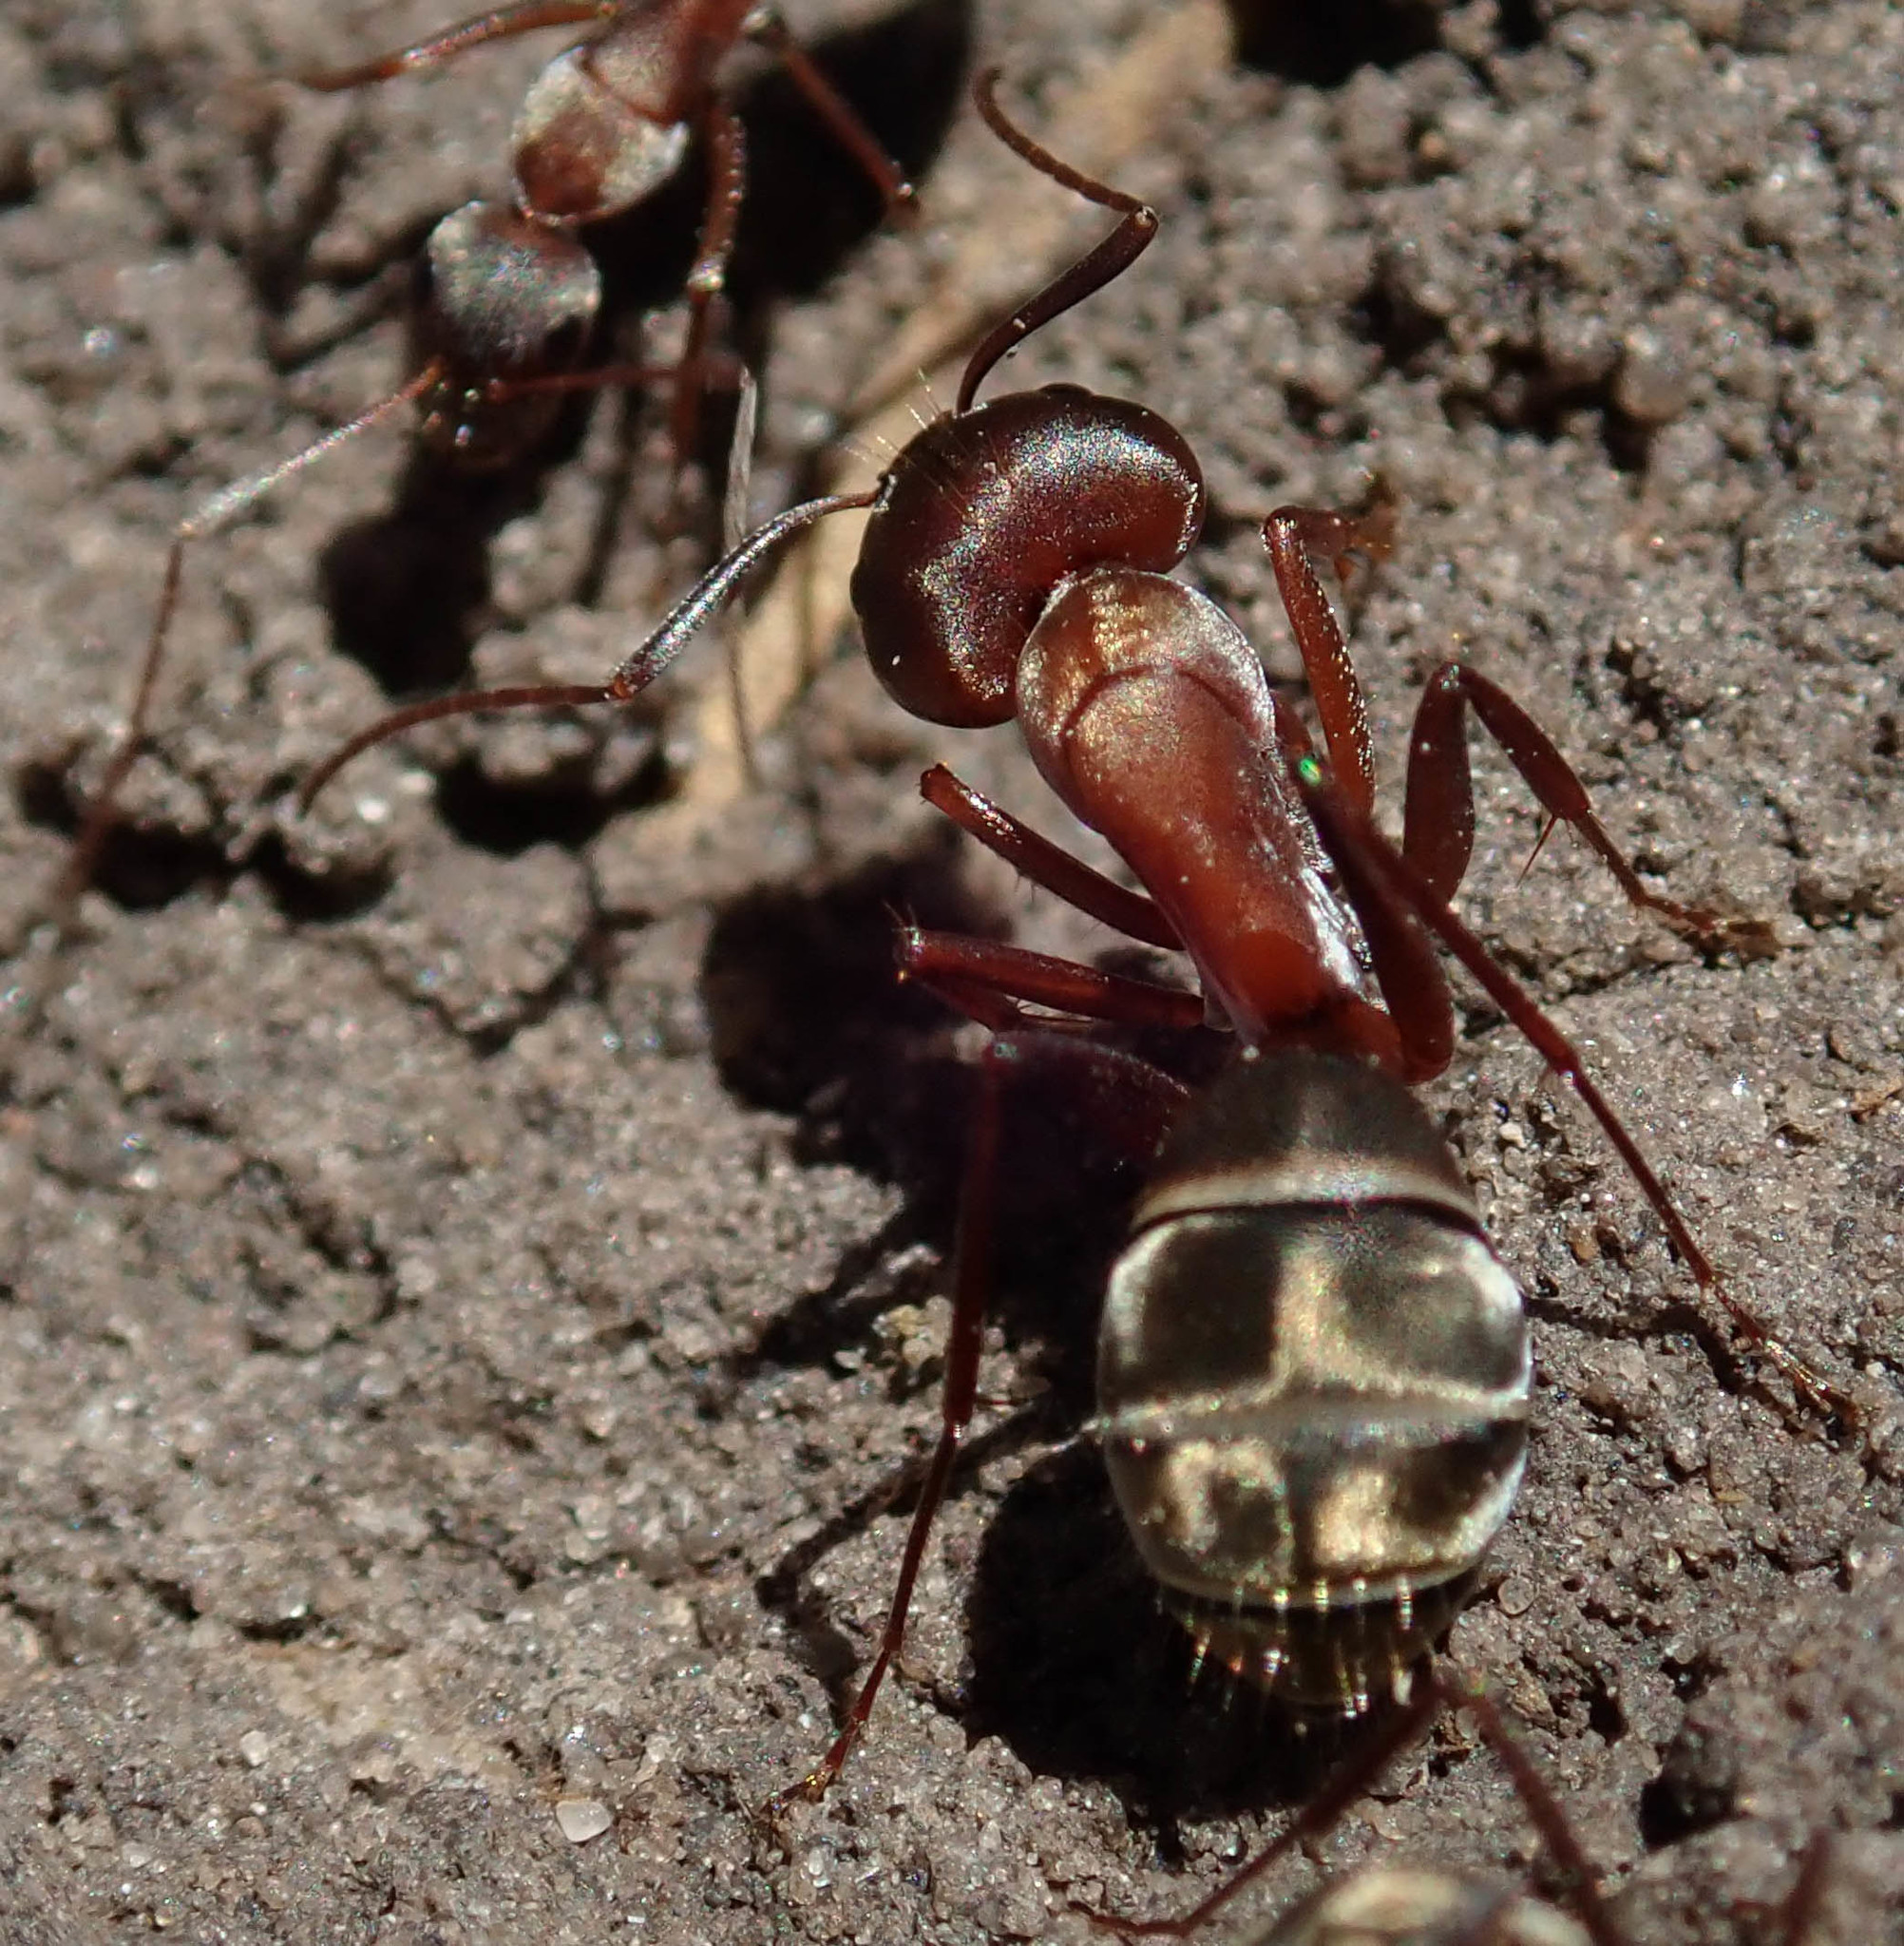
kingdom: Animalia
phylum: Arthropoda
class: Insecta
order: Hymenoptera
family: Formicidae
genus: Camponotus
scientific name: Camponotus vestitus
